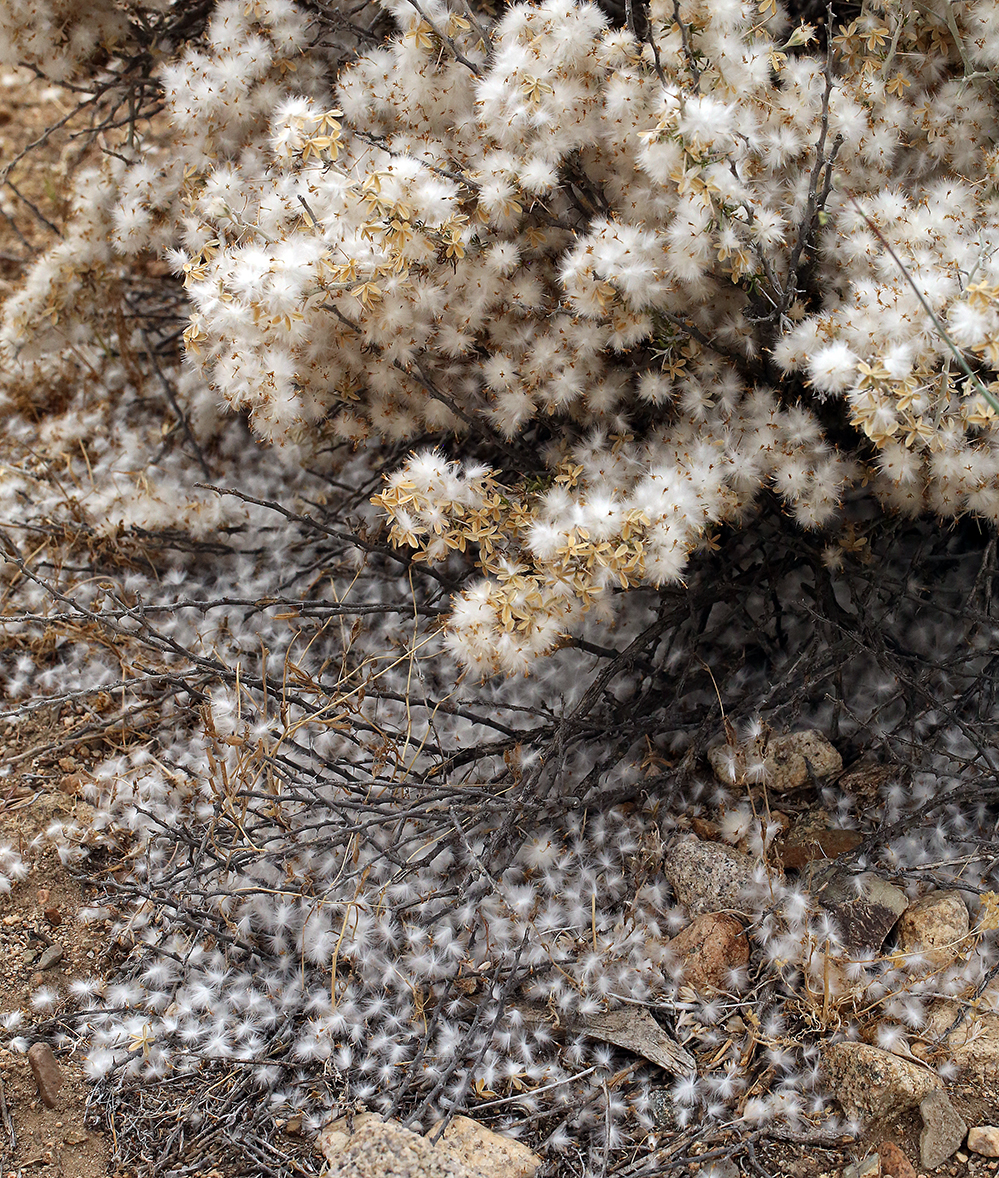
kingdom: Plantae
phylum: Tracheophyta
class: Magnoliopsida
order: Asterales
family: Asteraceae
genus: Tetradymia
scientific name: Tetradymia axillaris
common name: Long-spine horsebrush
